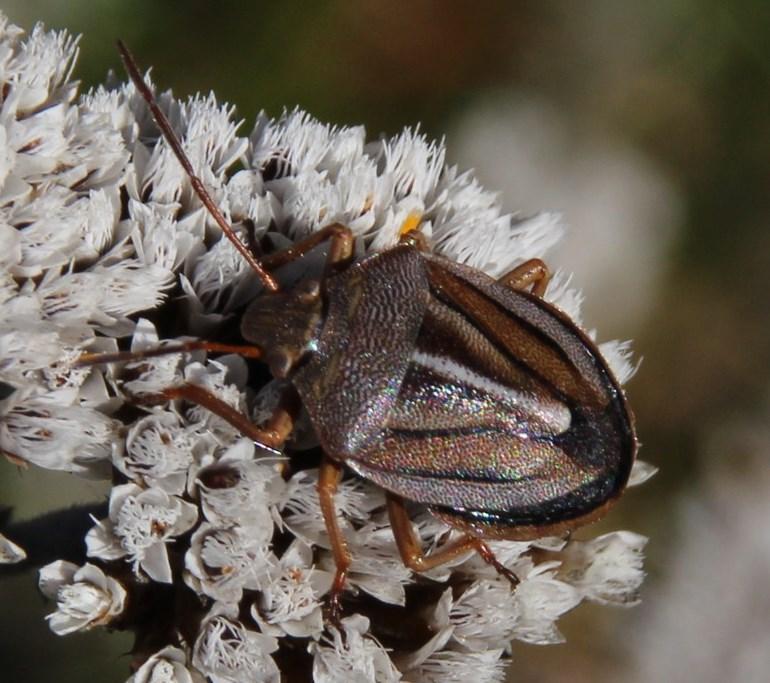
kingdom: Animalia
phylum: Arthropoda
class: Insecta
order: Hemiptera
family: Pentatomidae
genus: Theloris
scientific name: Theloris costata
